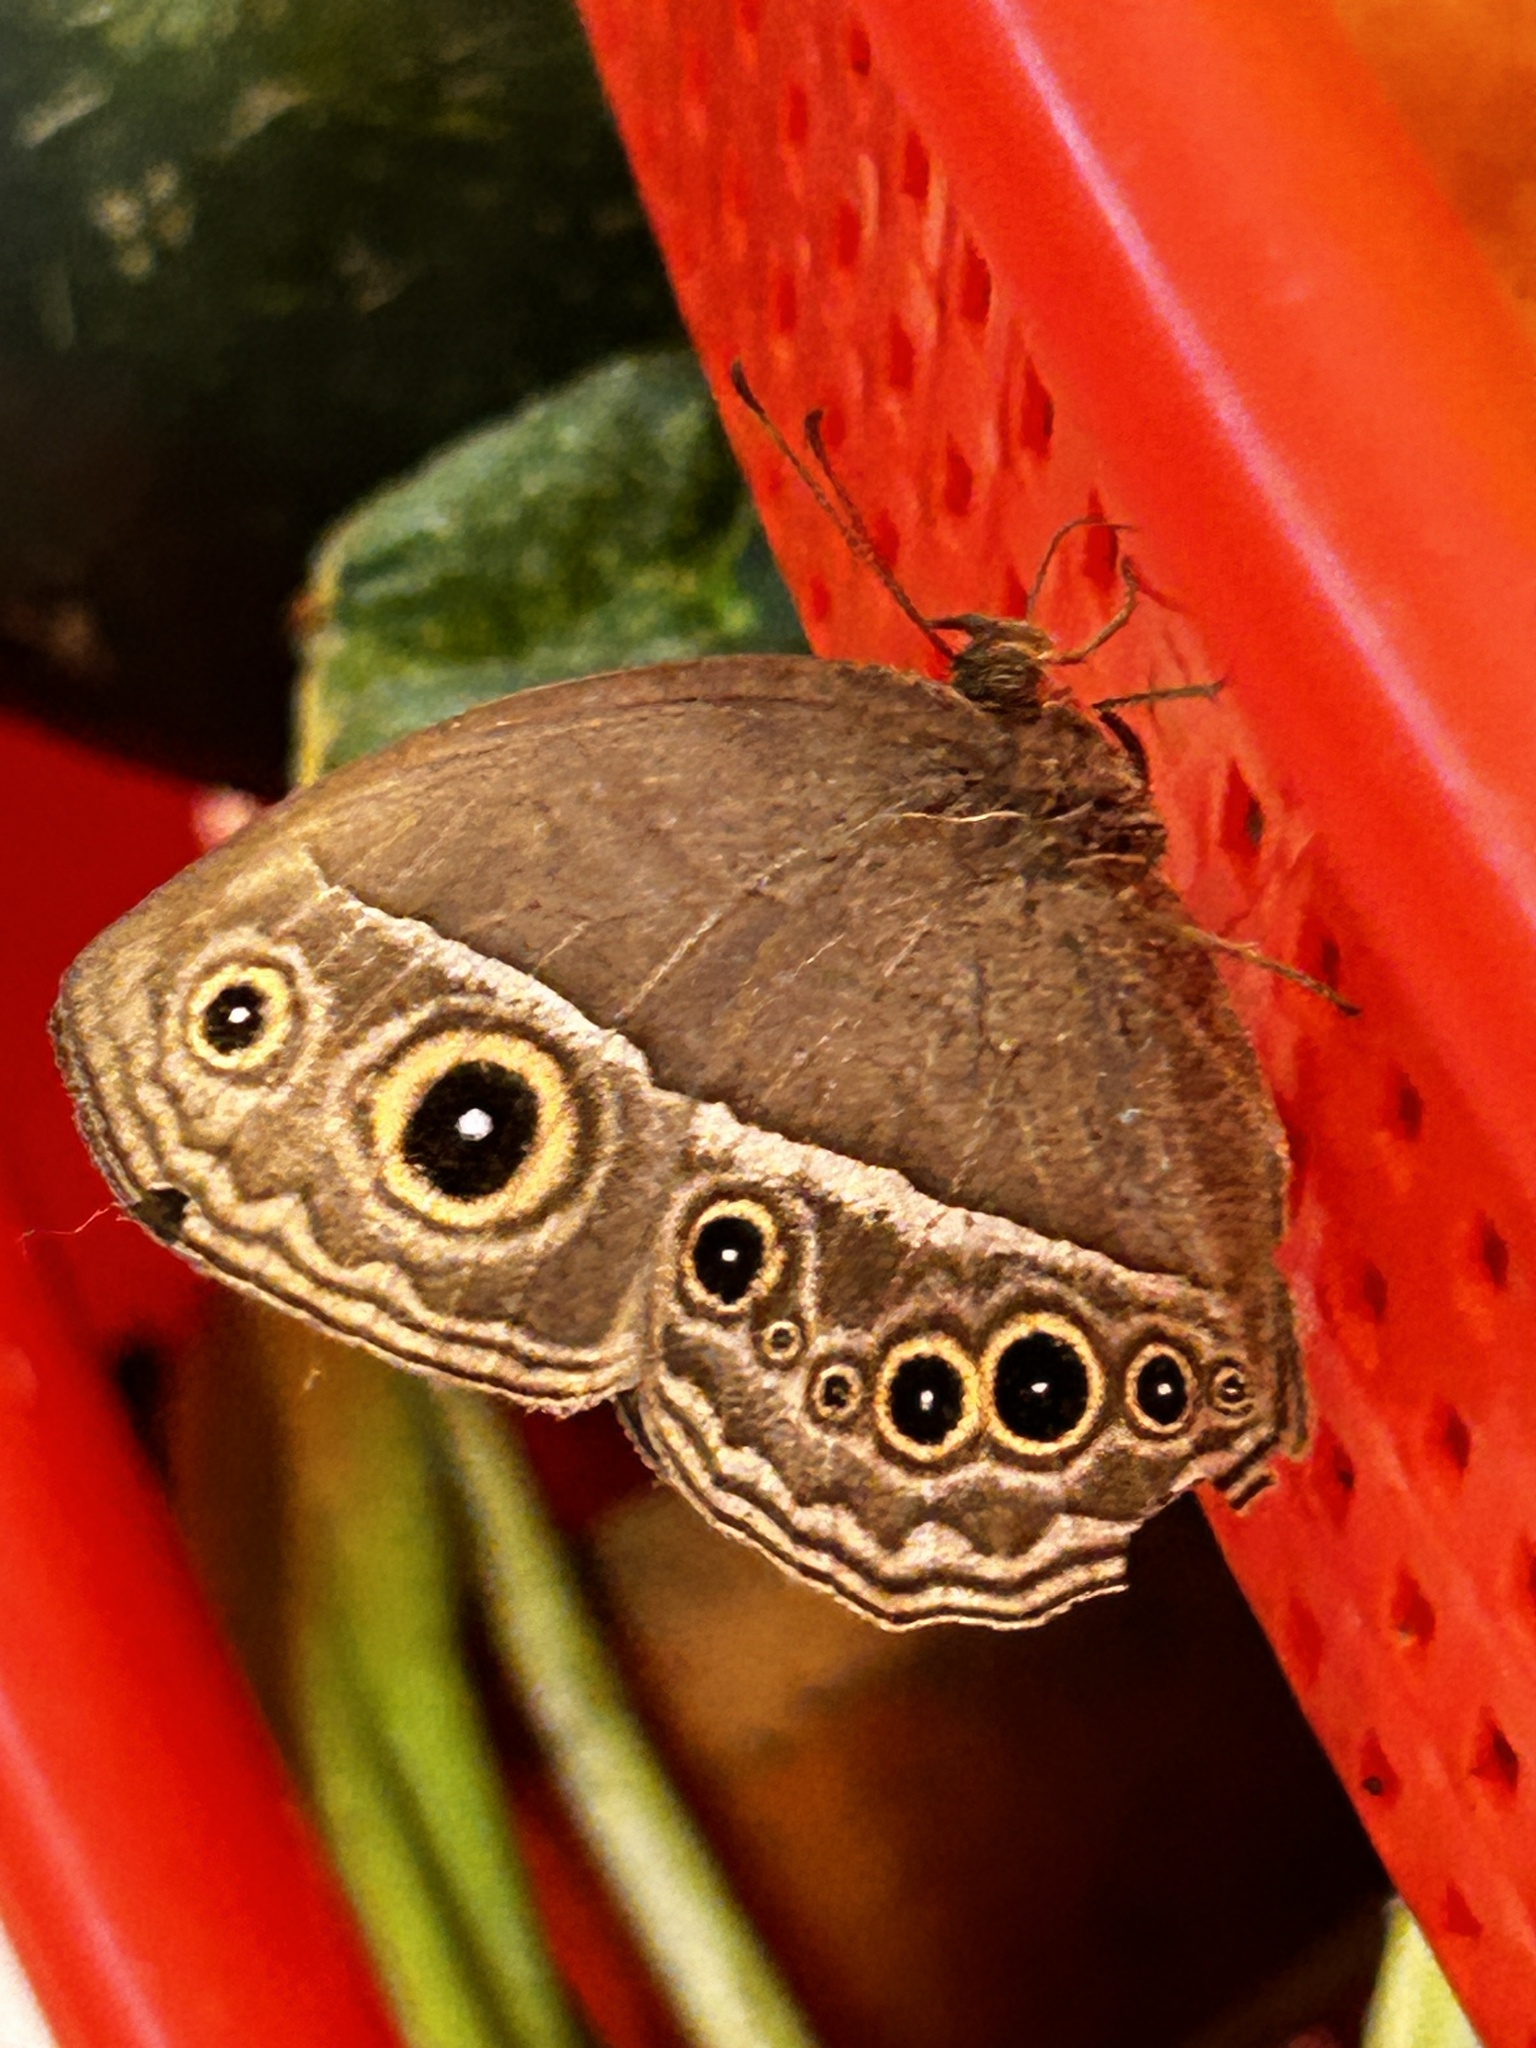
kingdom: Animalia
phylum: Arthropoda
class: Insecta
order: Lepidoptera
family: Nymphalidae
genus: Mycalesis
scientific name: Mycalesis horsfieldii
